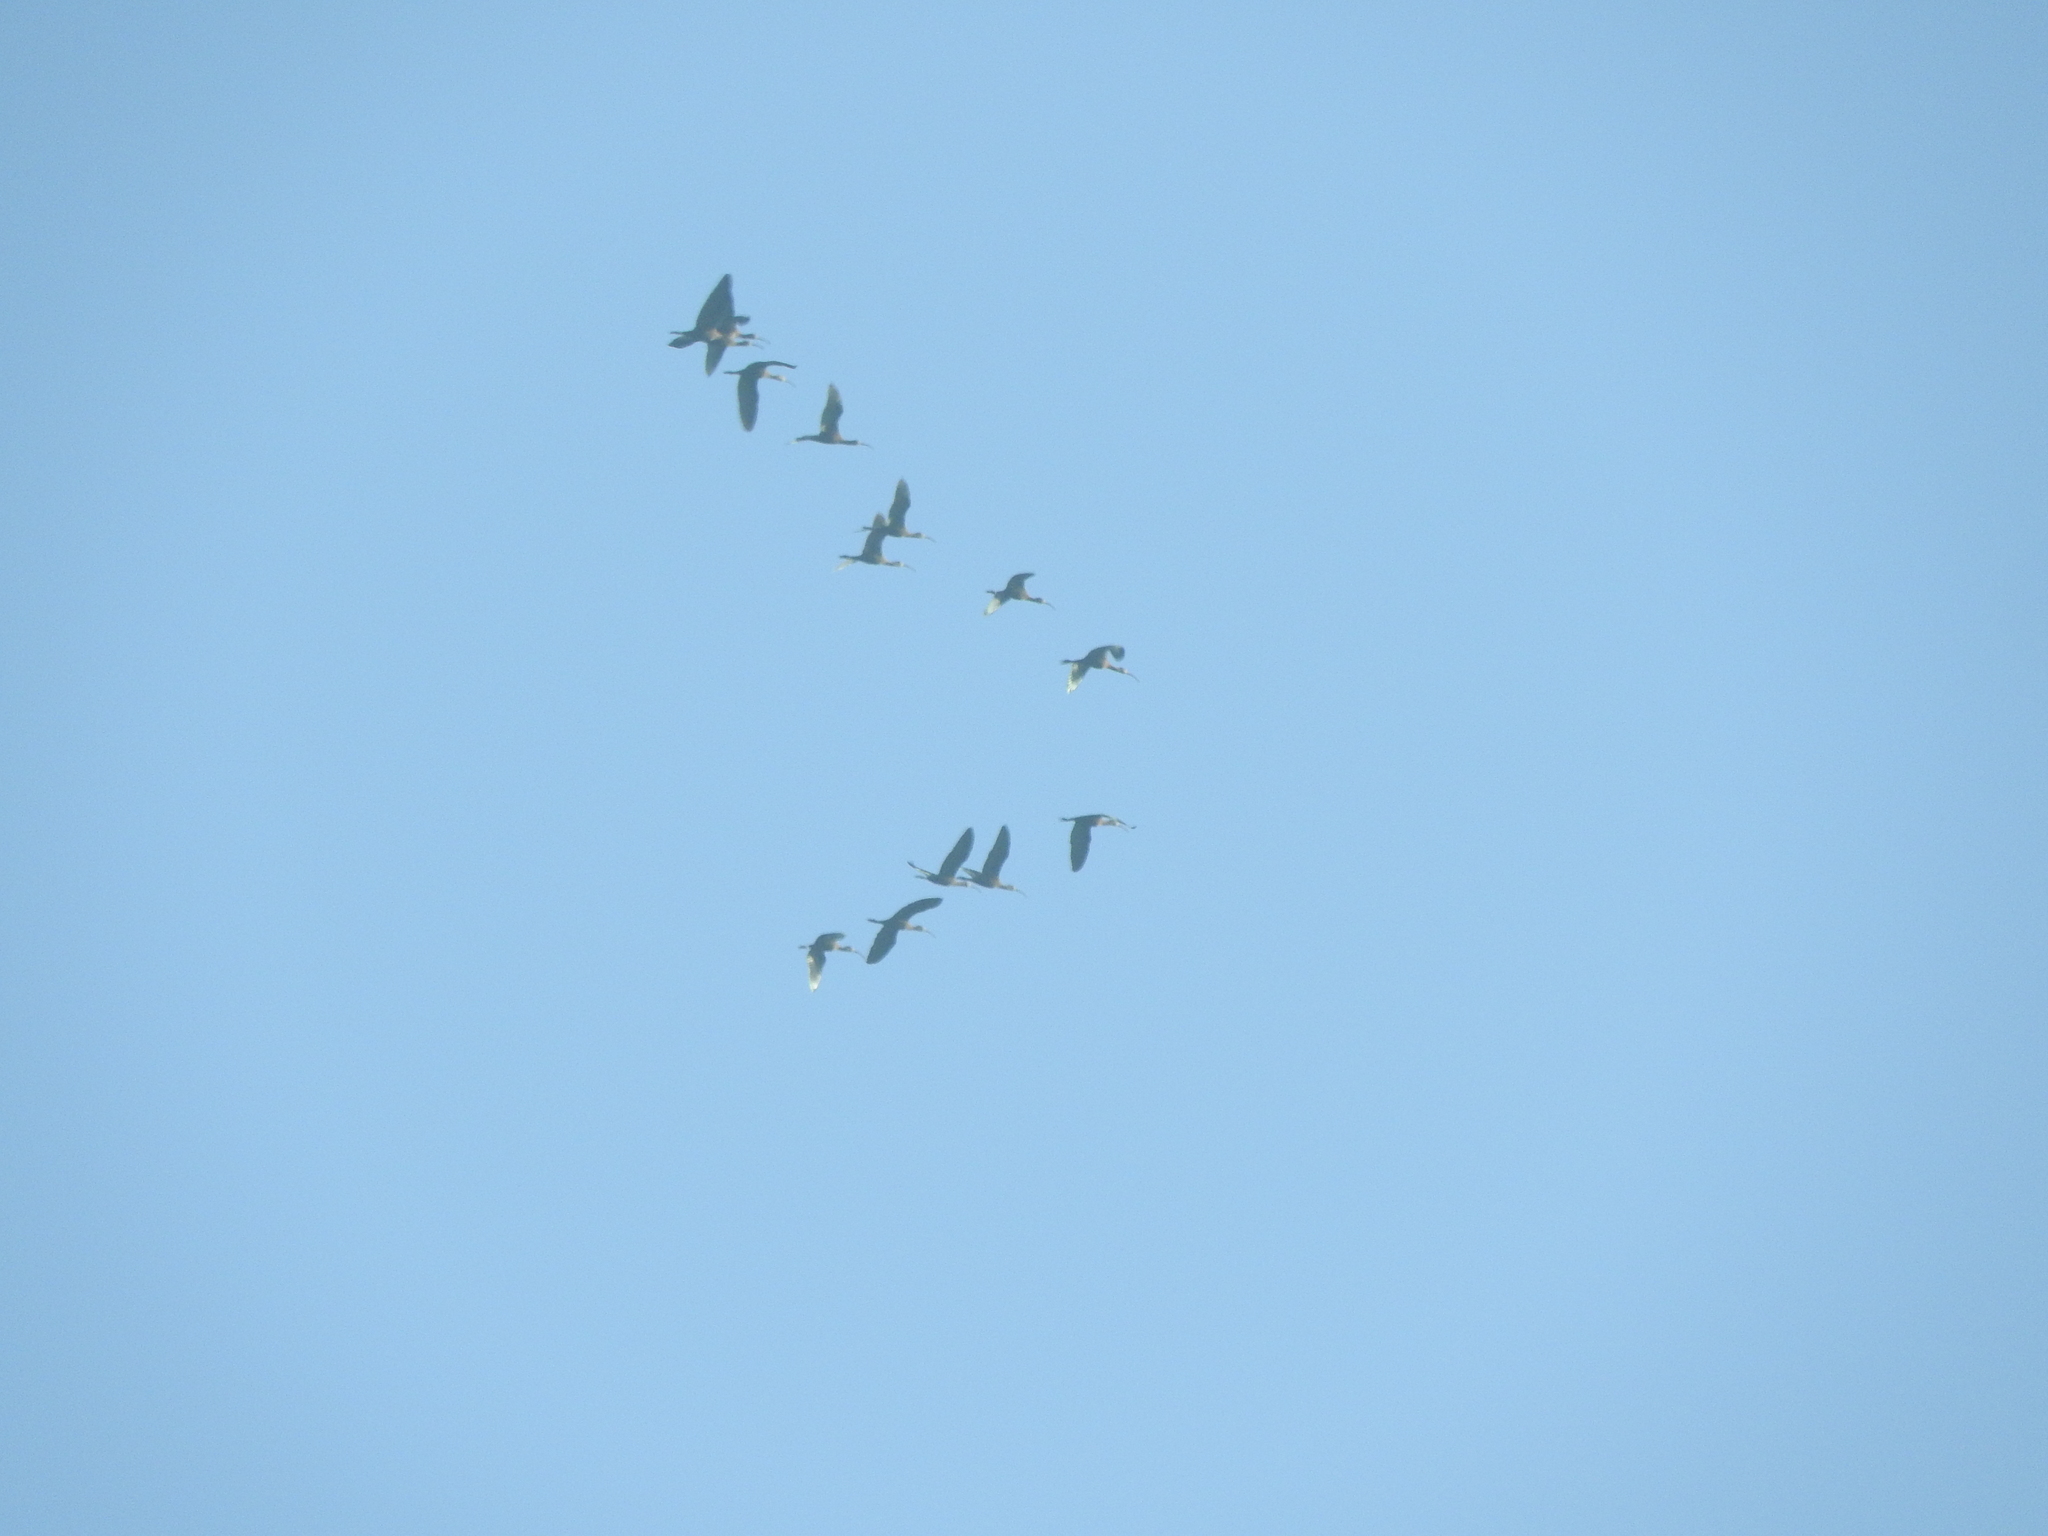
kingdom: Animalia
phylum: Chordata
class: Aves
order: Pelecaniformes
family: Threskiornithidae
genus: Plegadis
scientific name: Plegadis chihi
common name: White-faced ibis
